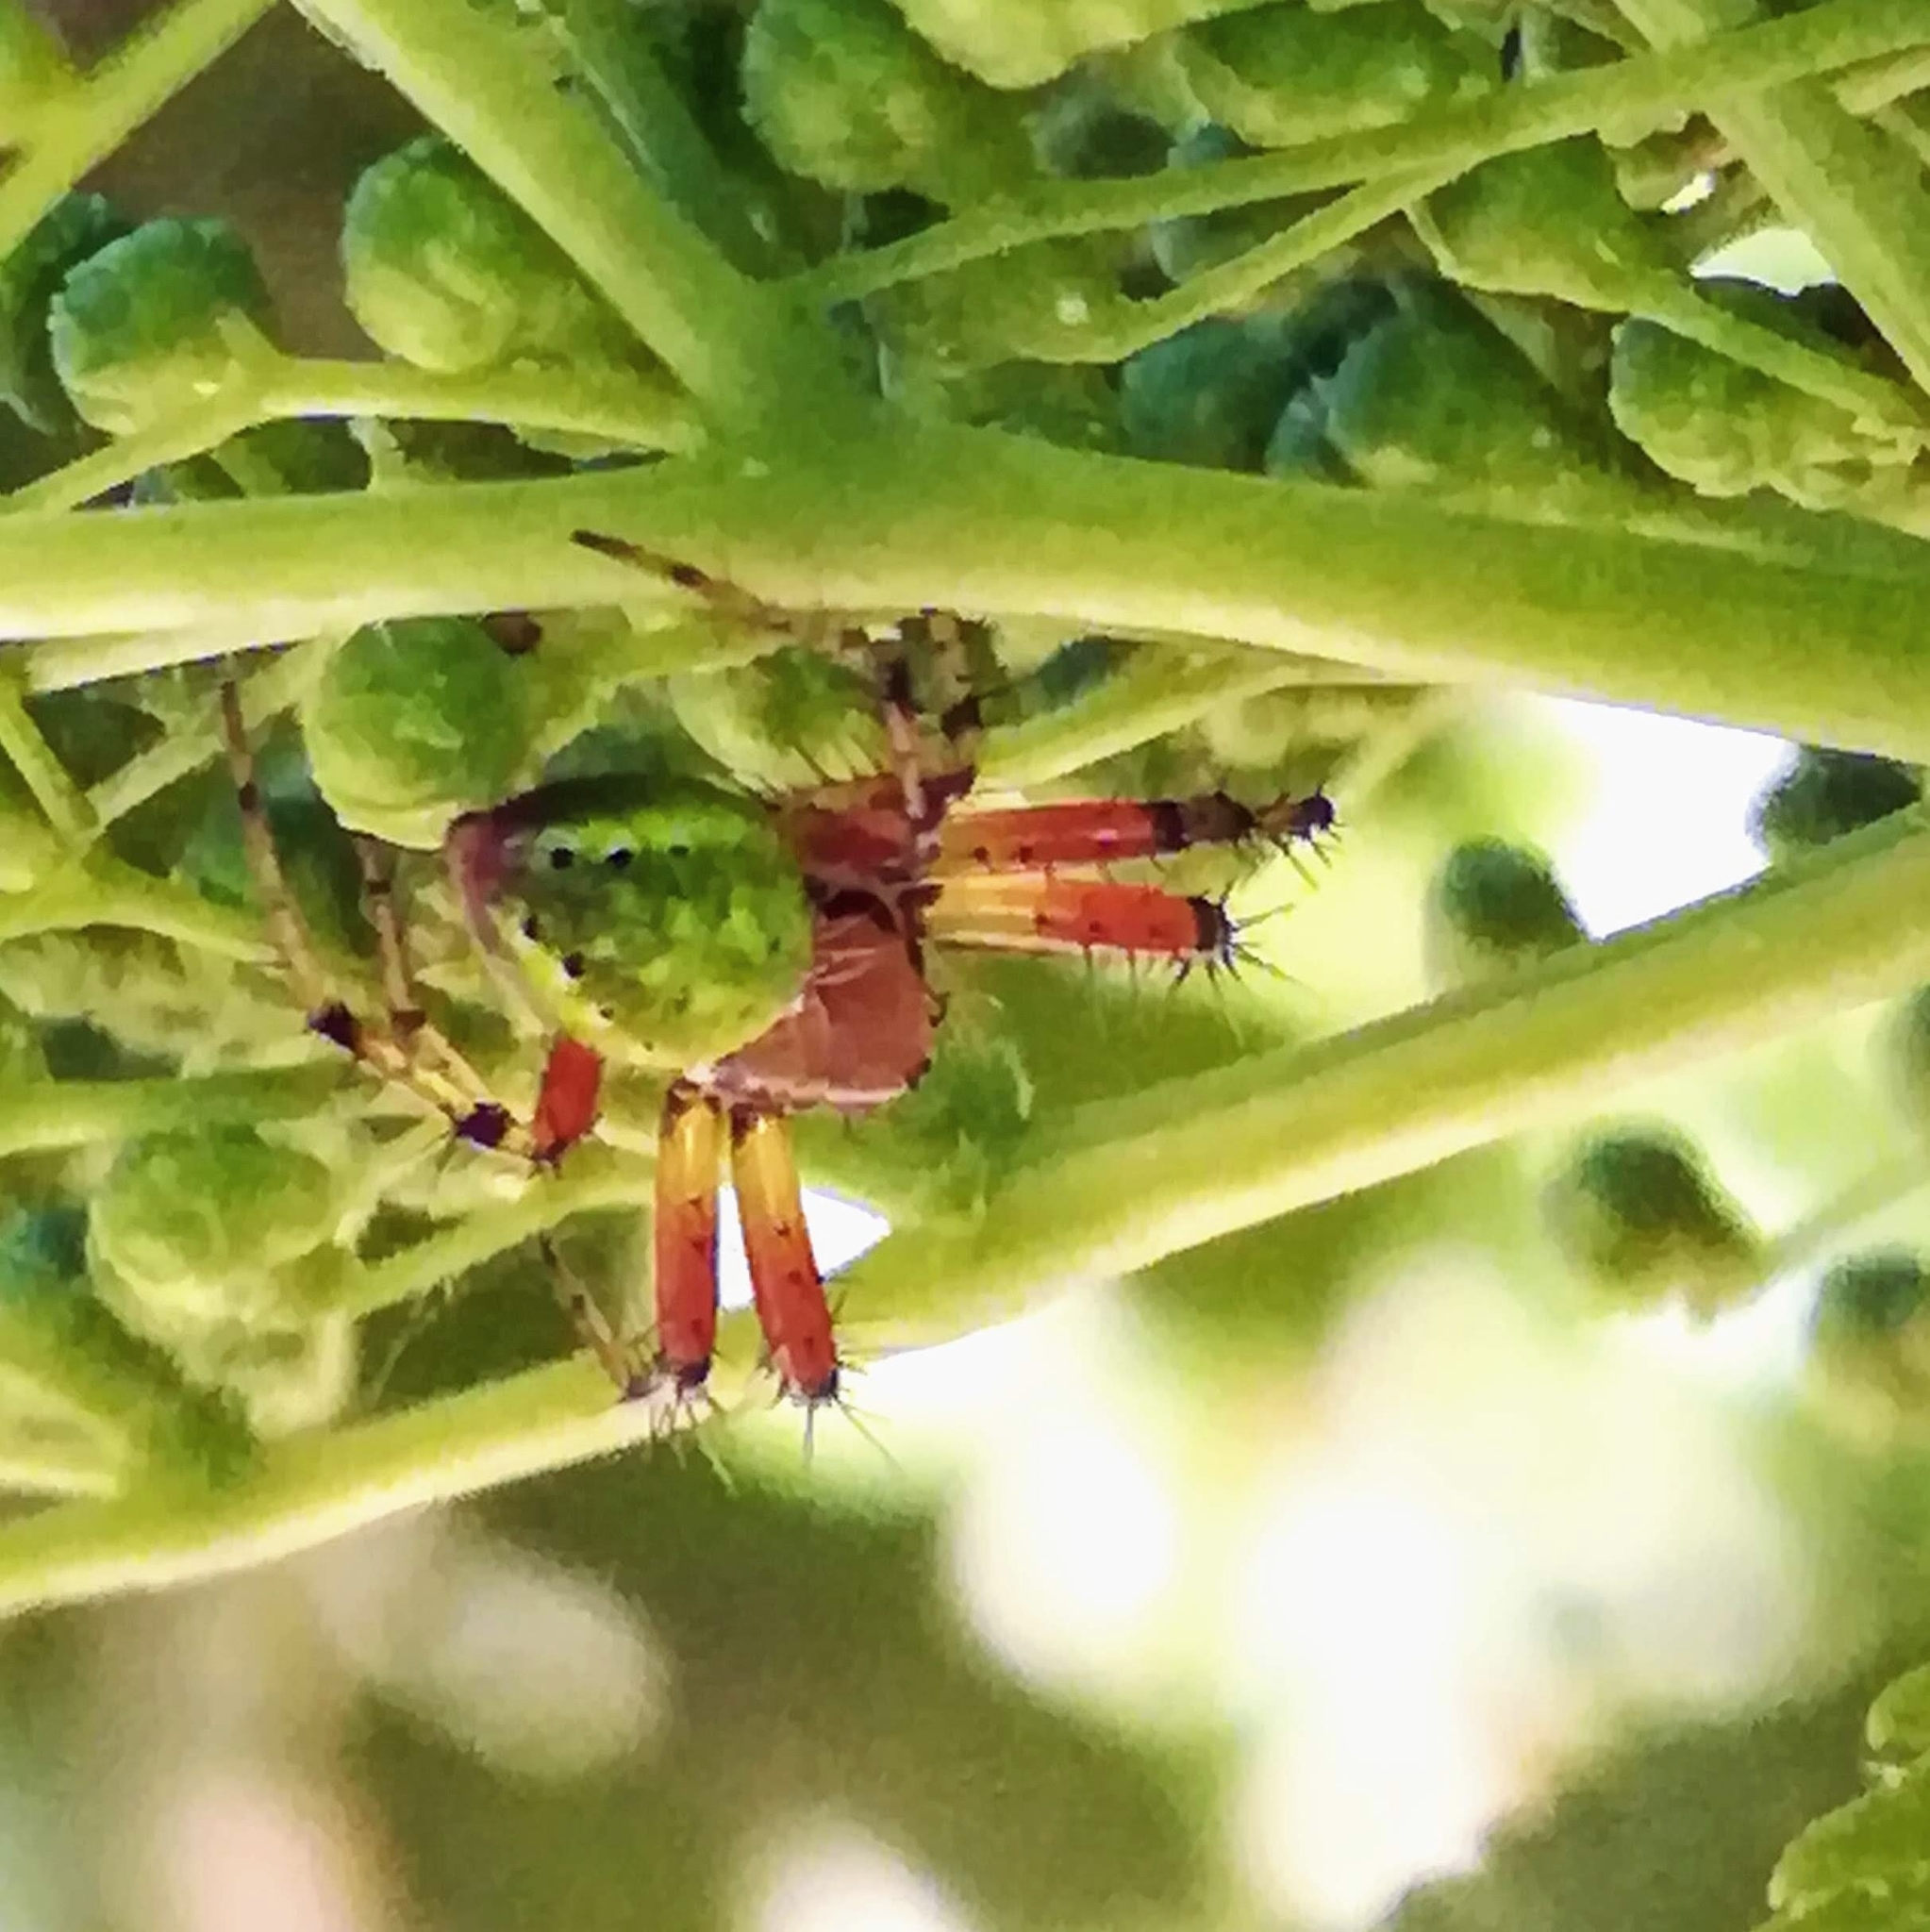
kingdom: Animalia
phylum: Arthropoda
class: Arachnida
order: Araneae
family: Araneidae
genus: Araniella
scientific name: Araniella cucurbitina
